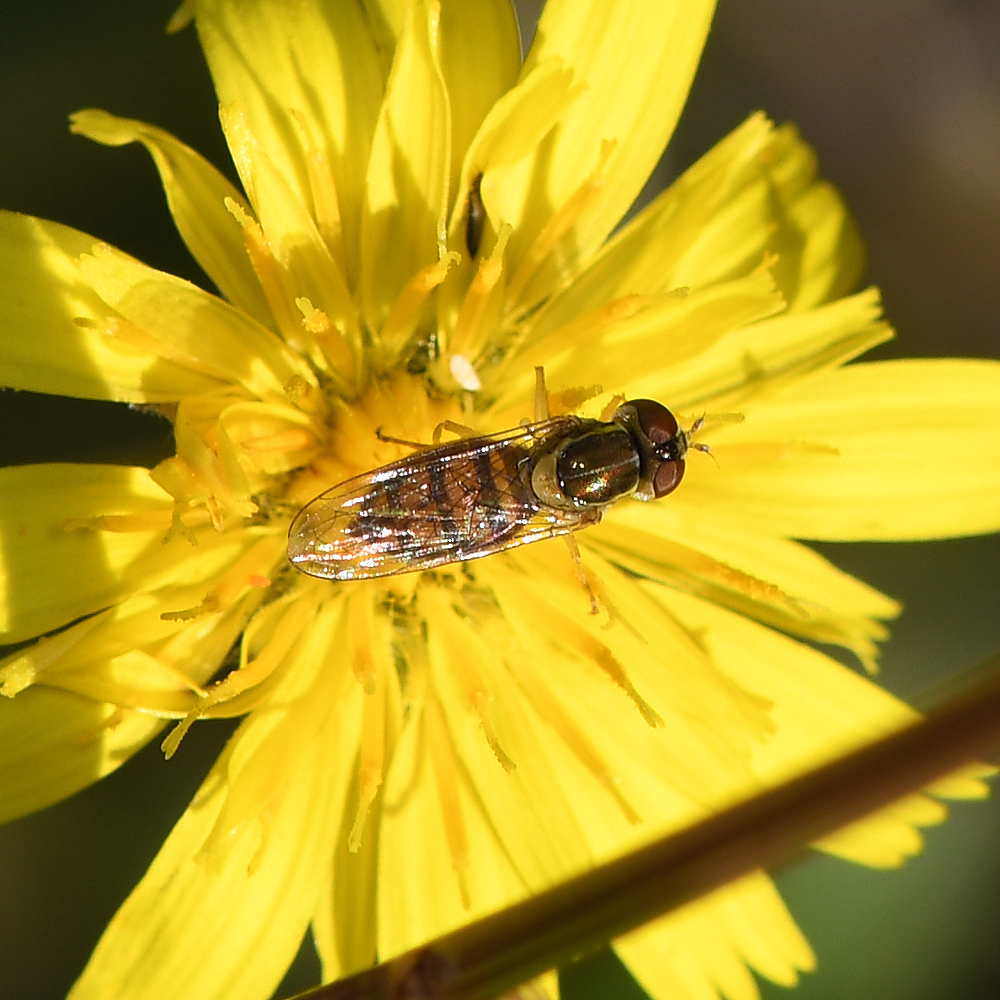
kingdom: Animalia
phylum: Arthropoda
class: Insecta
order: Diptera
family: Syrphidae
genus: Toxomerus
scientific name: Toxomerus marginatus
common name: Syrphid fly
